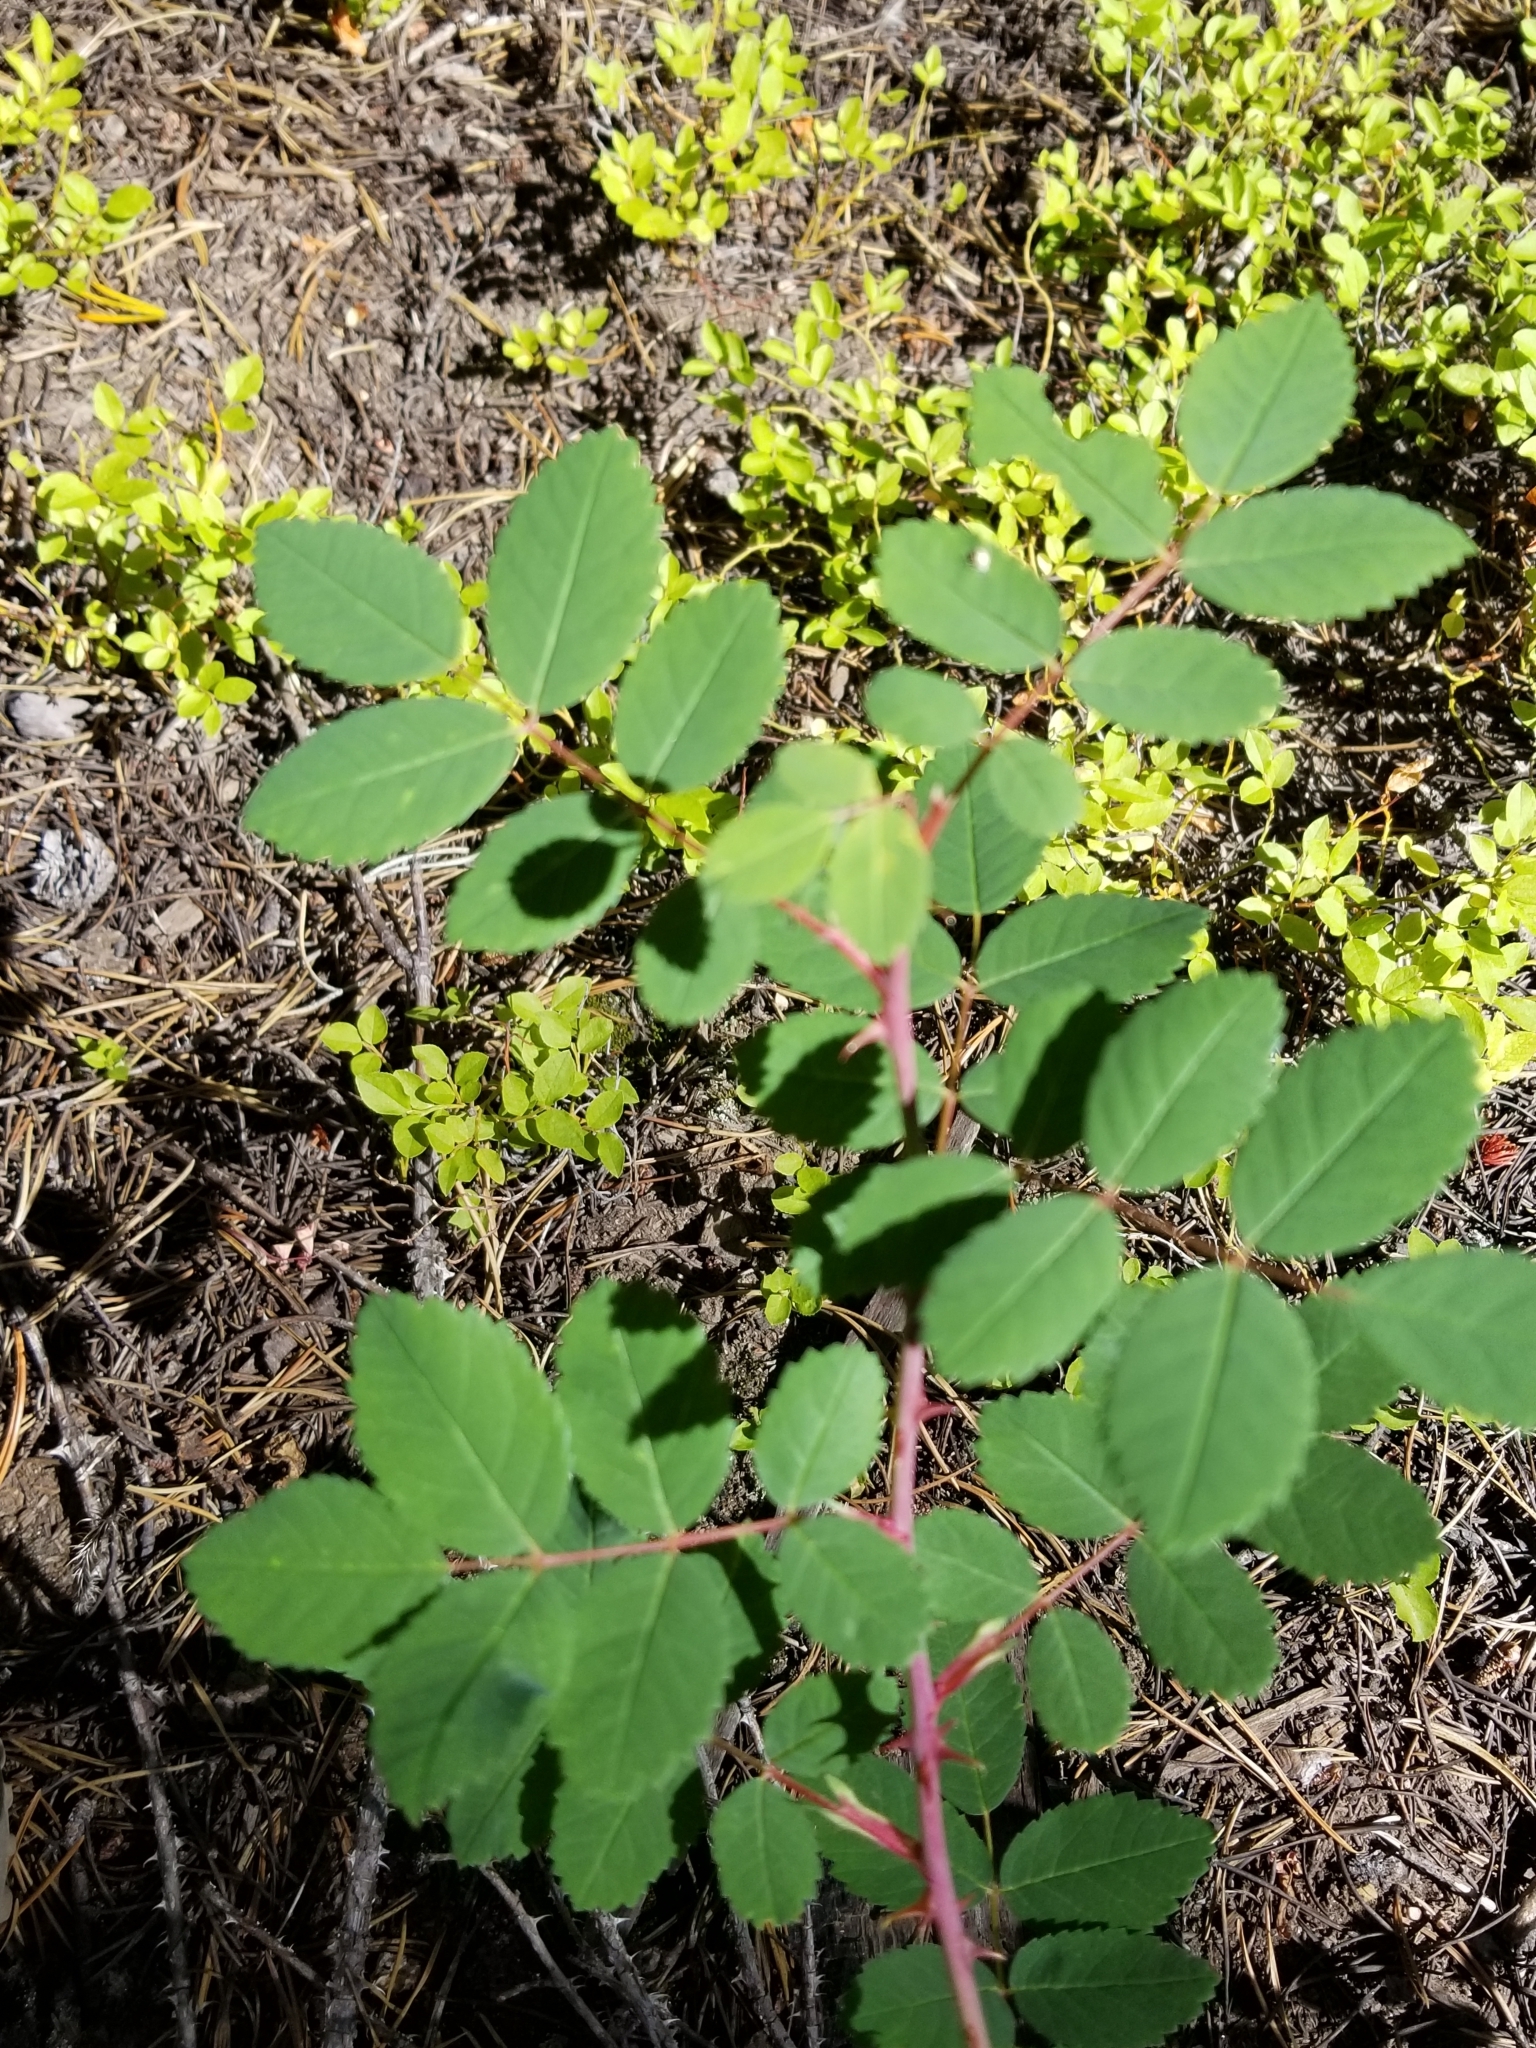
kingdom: Plantae
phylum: Tracheophyta
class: Magnoliopsida
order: Rosales
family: Rosaceae
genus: Rosa
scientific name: Rosa woodsii
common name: Woods's rose
